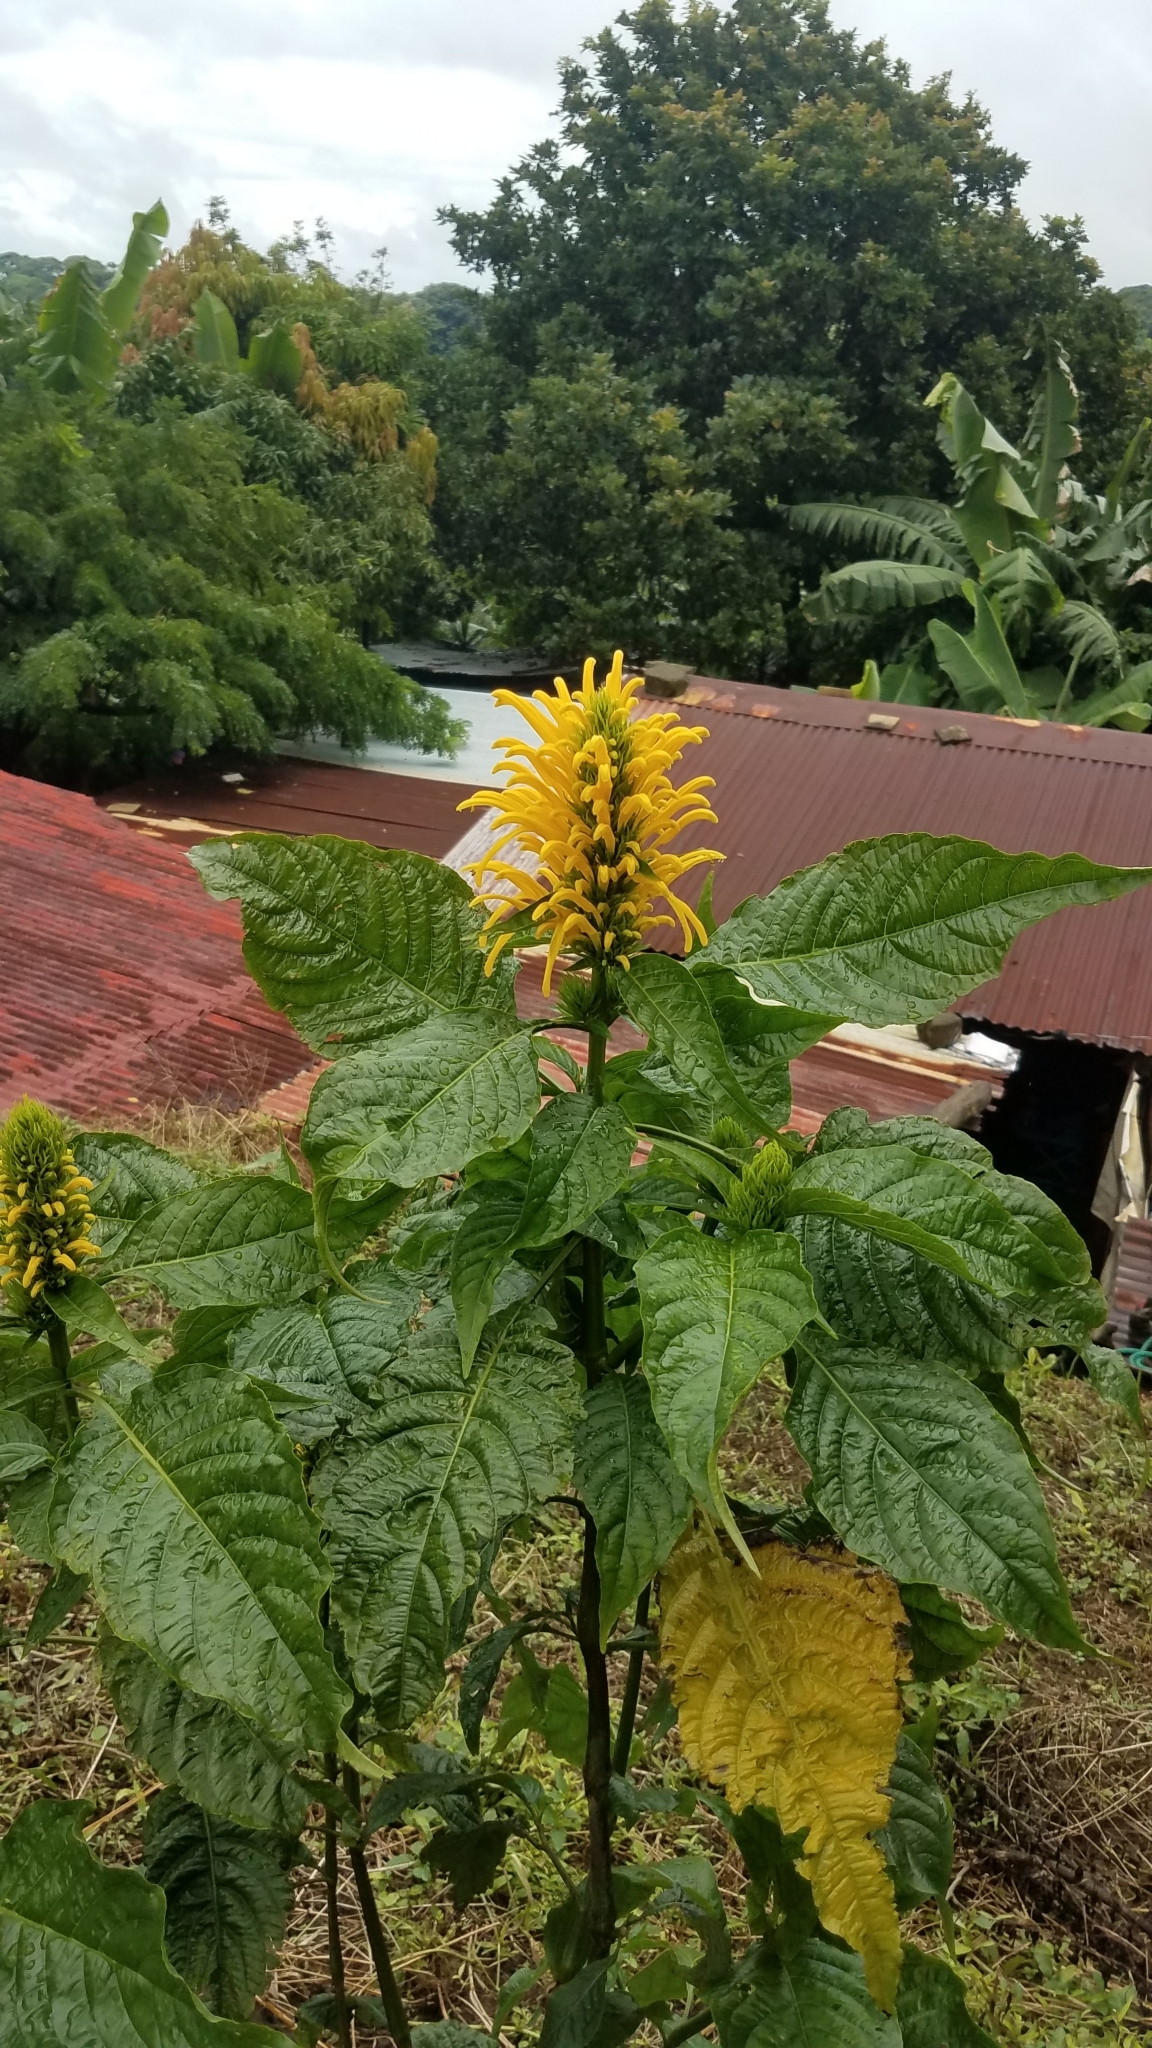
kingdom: Plantae
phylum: Tracheophyta
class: Magnoliopsida
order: Lamiales
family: Acanthaceae
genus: Justicia
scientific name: Justicia aurea
